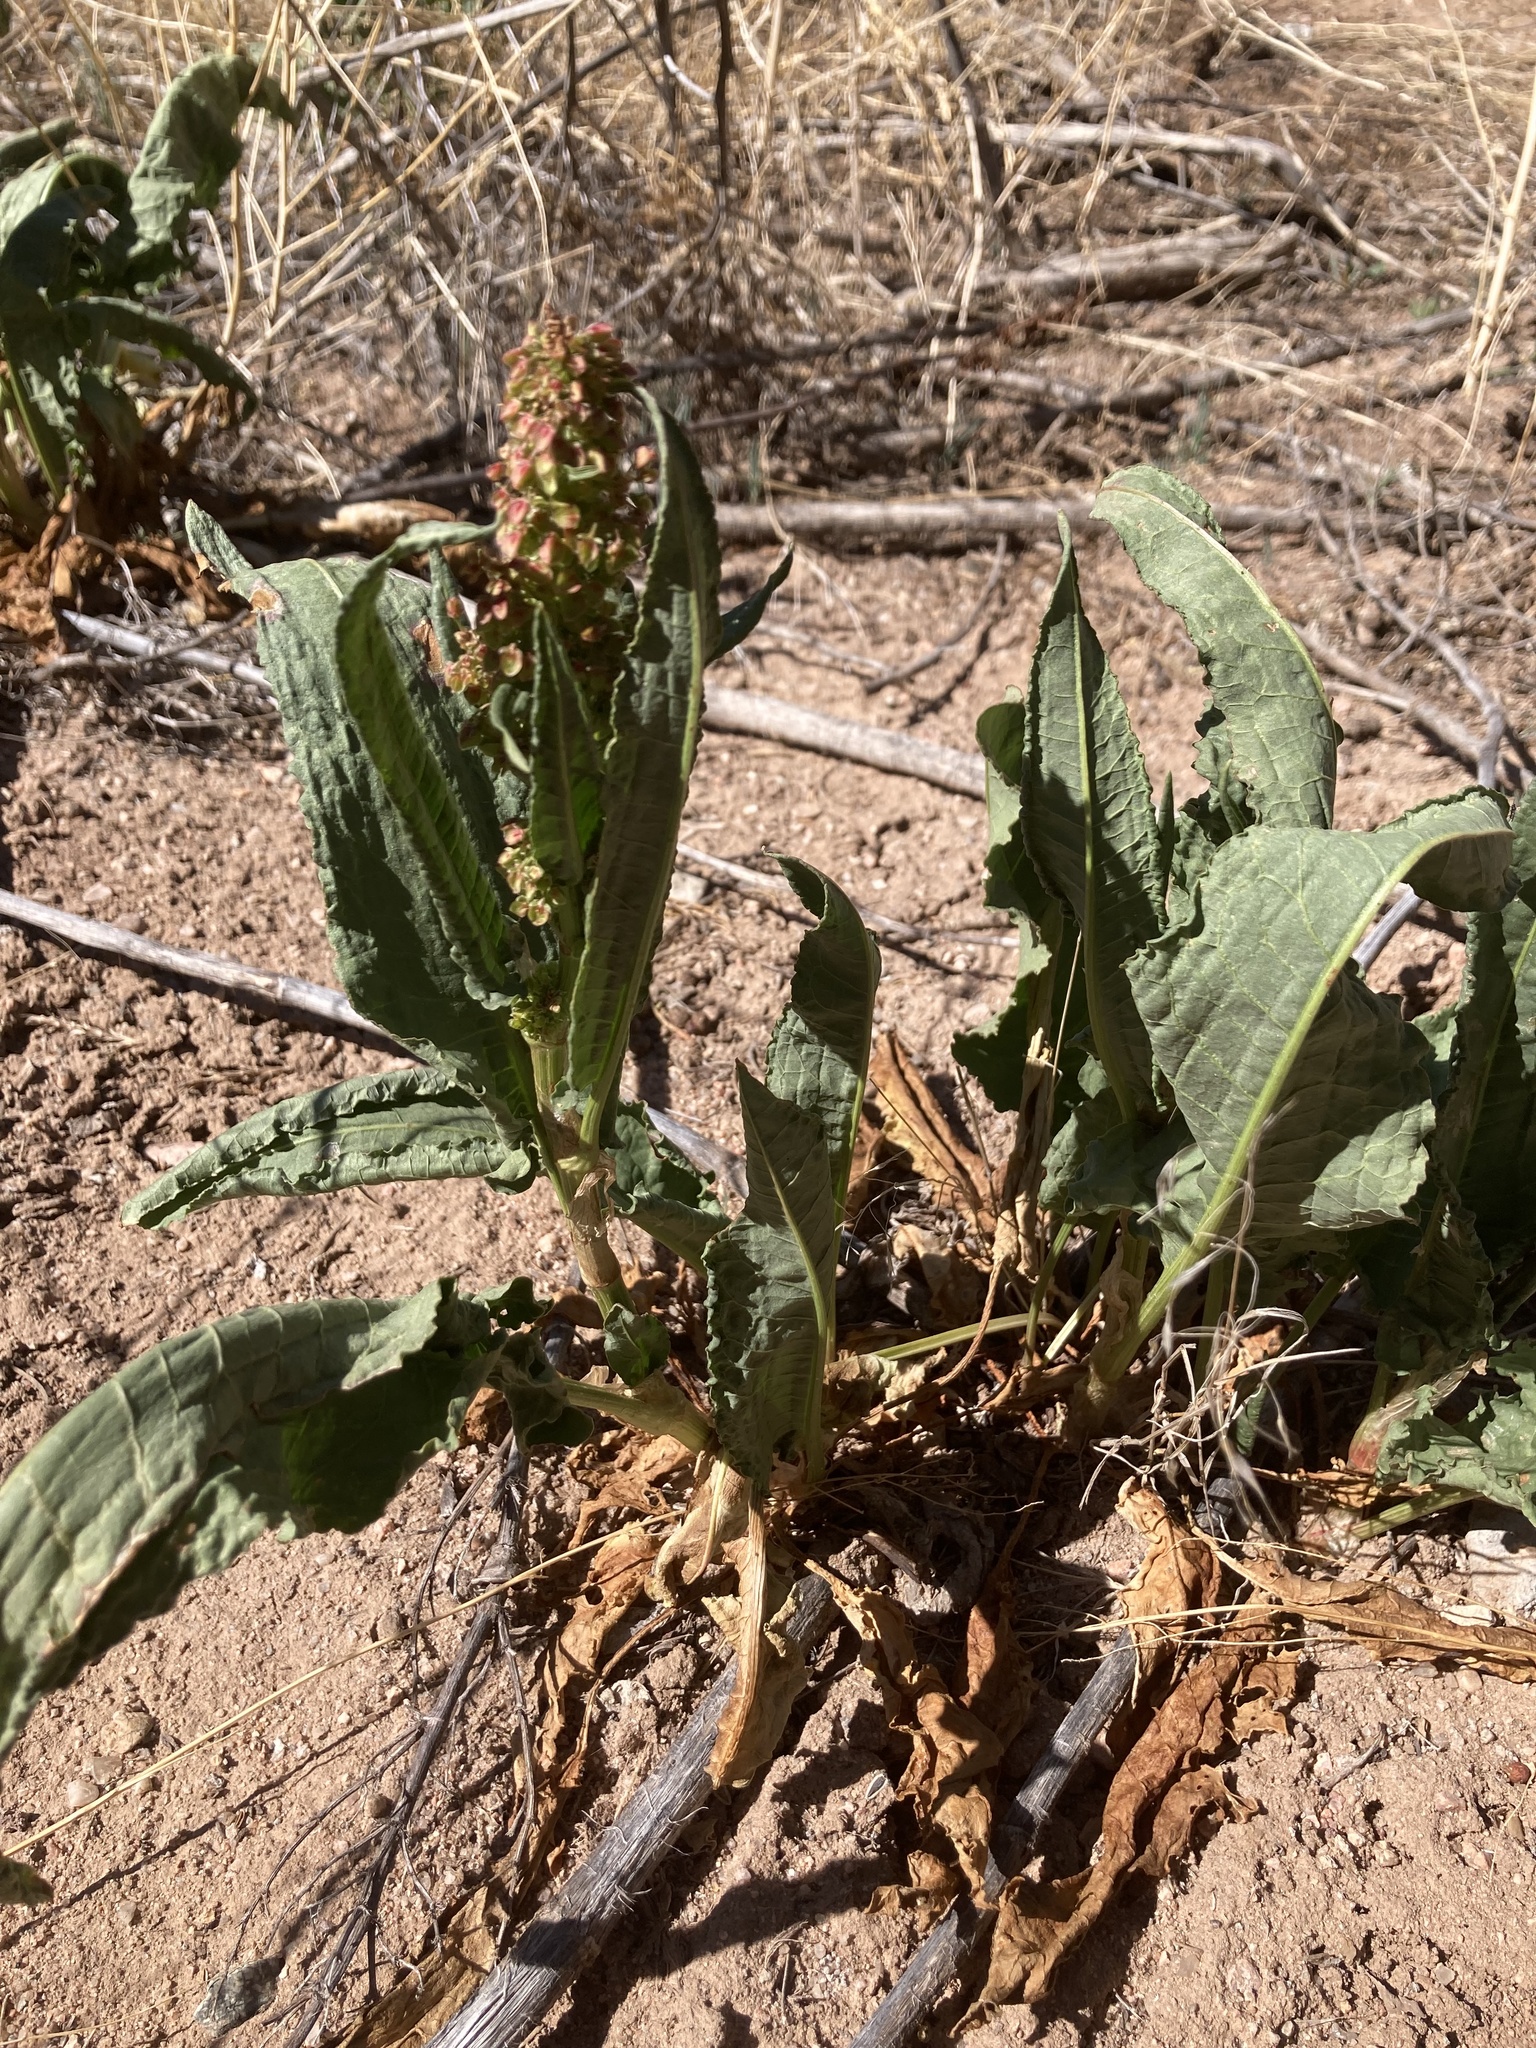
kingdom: Plantae
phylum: Tracheophyta
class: Magnoliopsida
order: Caryophyllales
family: Polygonaceae
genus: Rumex
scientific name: Rumex crispus
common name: Curled dock
